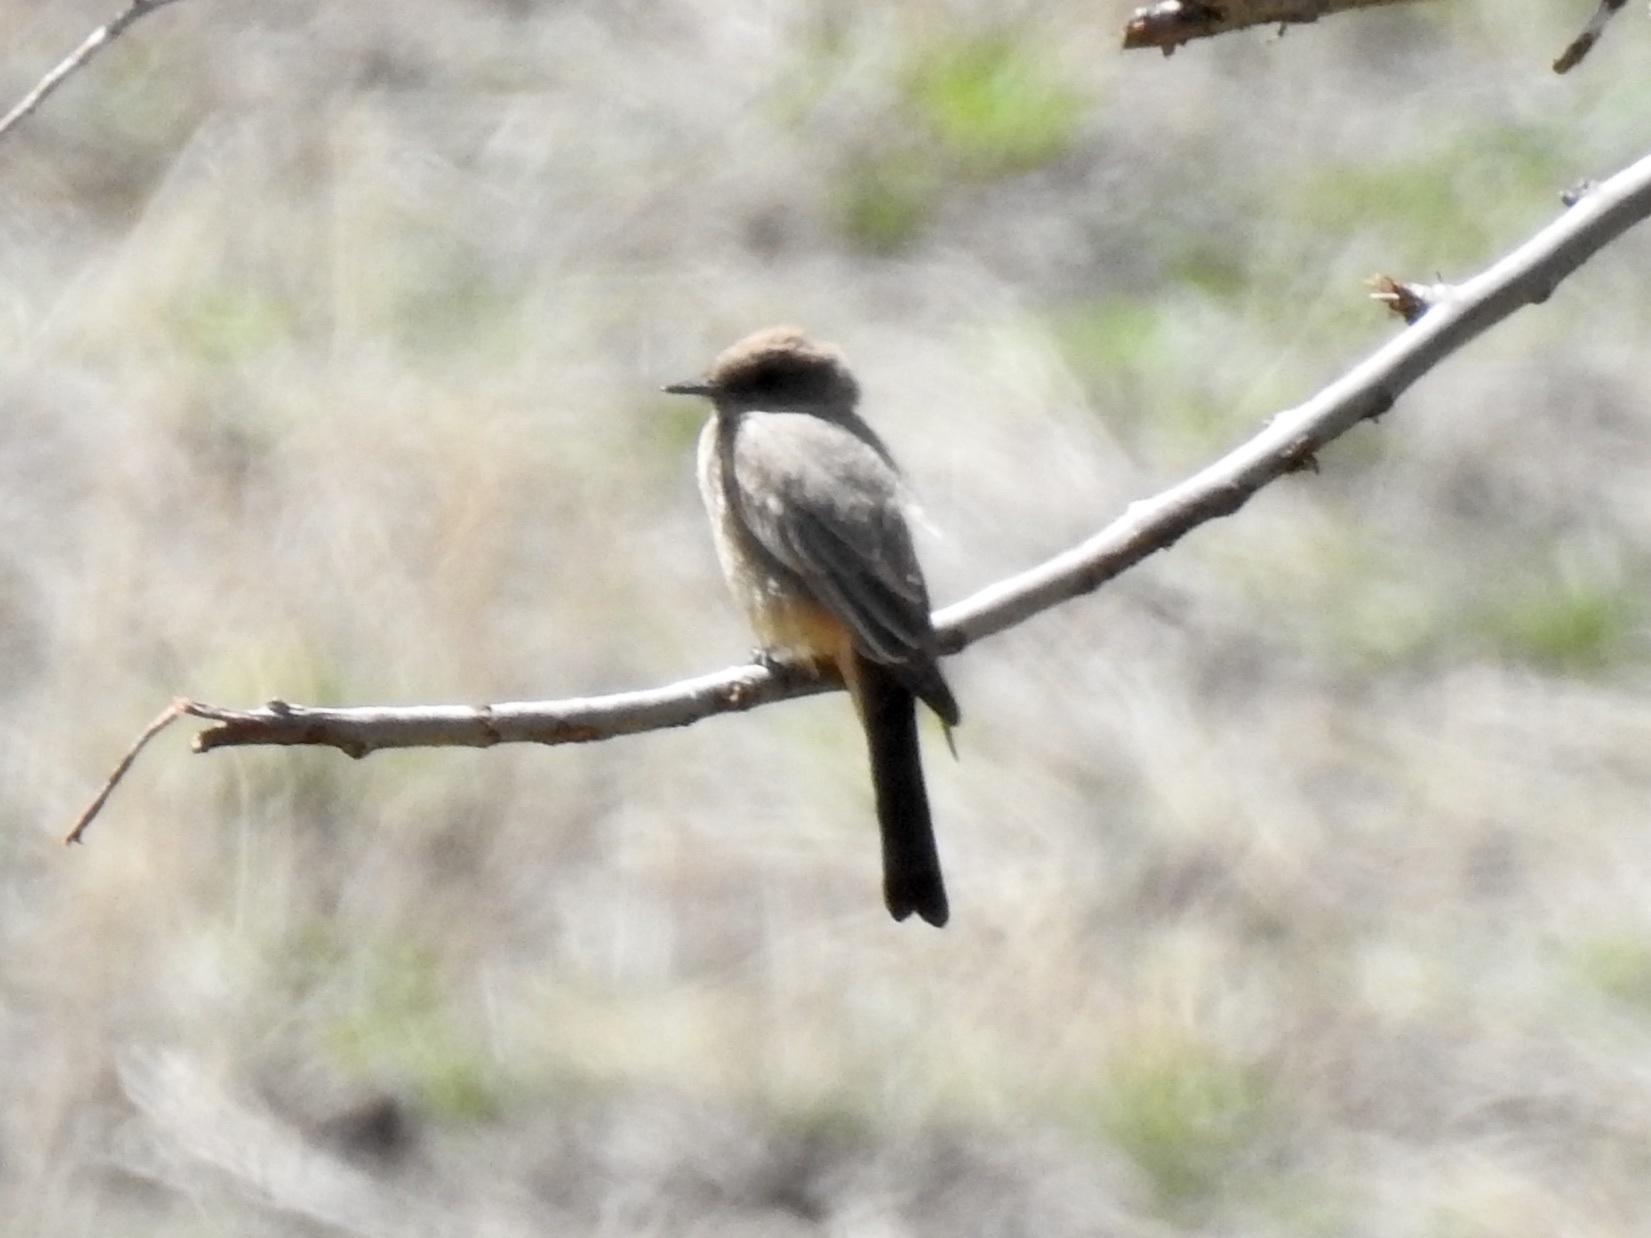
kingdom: Animalia
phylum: Chordata
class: Aves
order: Passeriformes
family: Tyrannidae
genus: Sayornis
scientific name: Sayornis saya
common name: Say's phoebe
